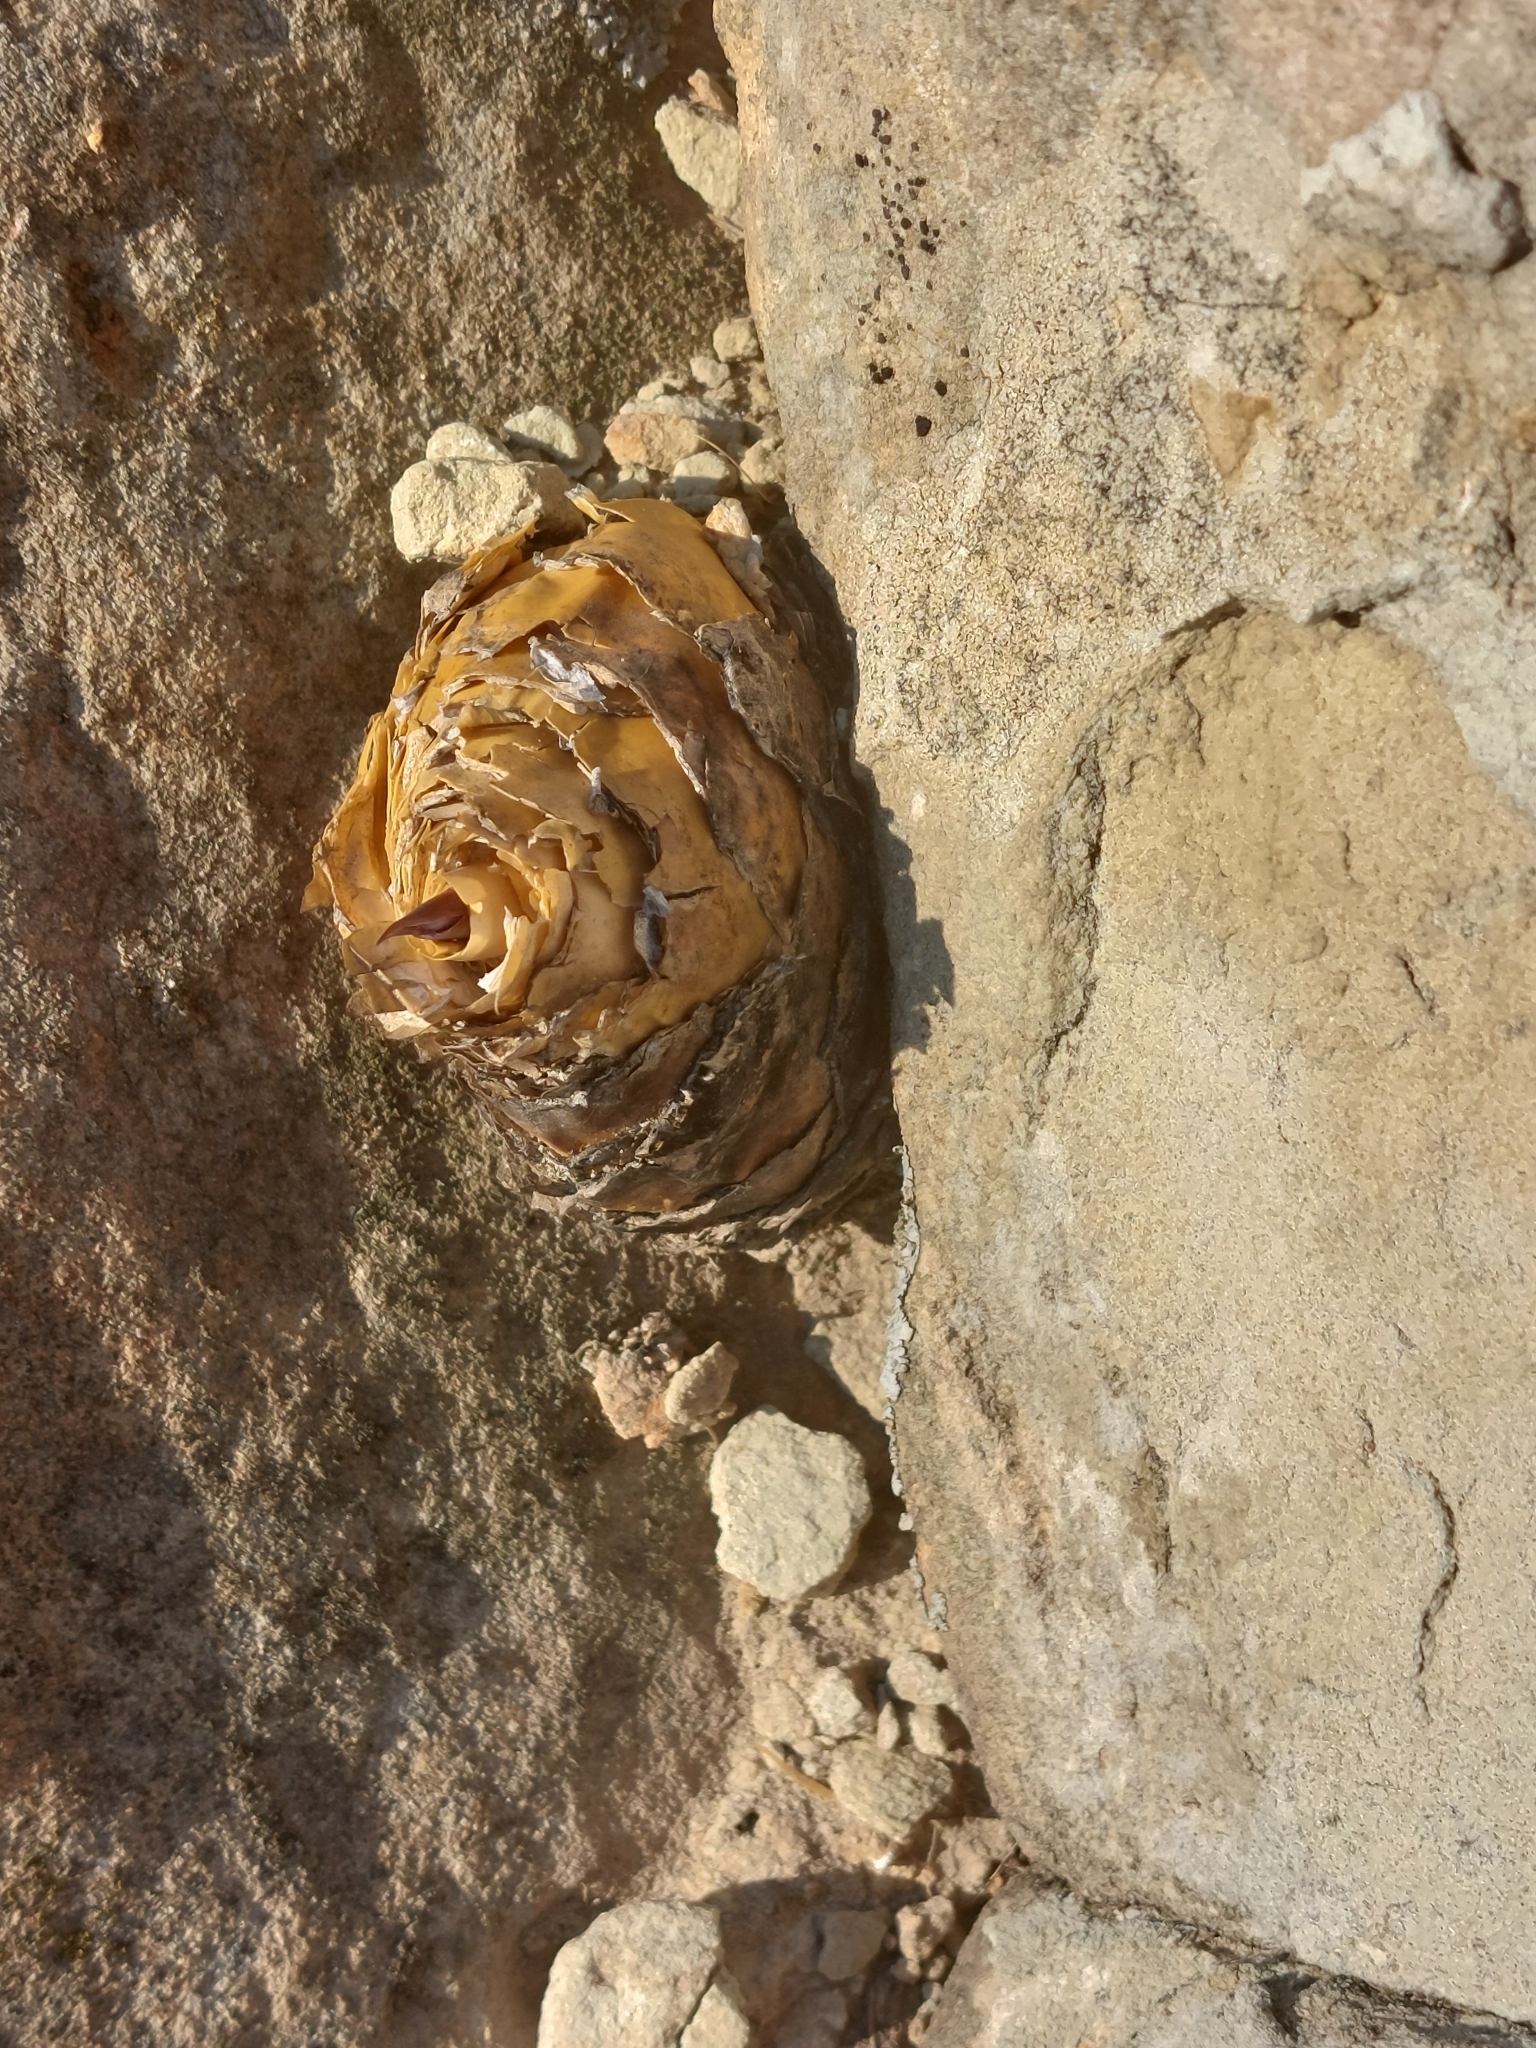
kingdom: Plantae
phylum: Tracheophyta
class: Liliopsida
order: Asparagales
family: Asparagaceae
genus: Merwilla
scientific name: Merwilla plumbea
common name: Blue-squill
